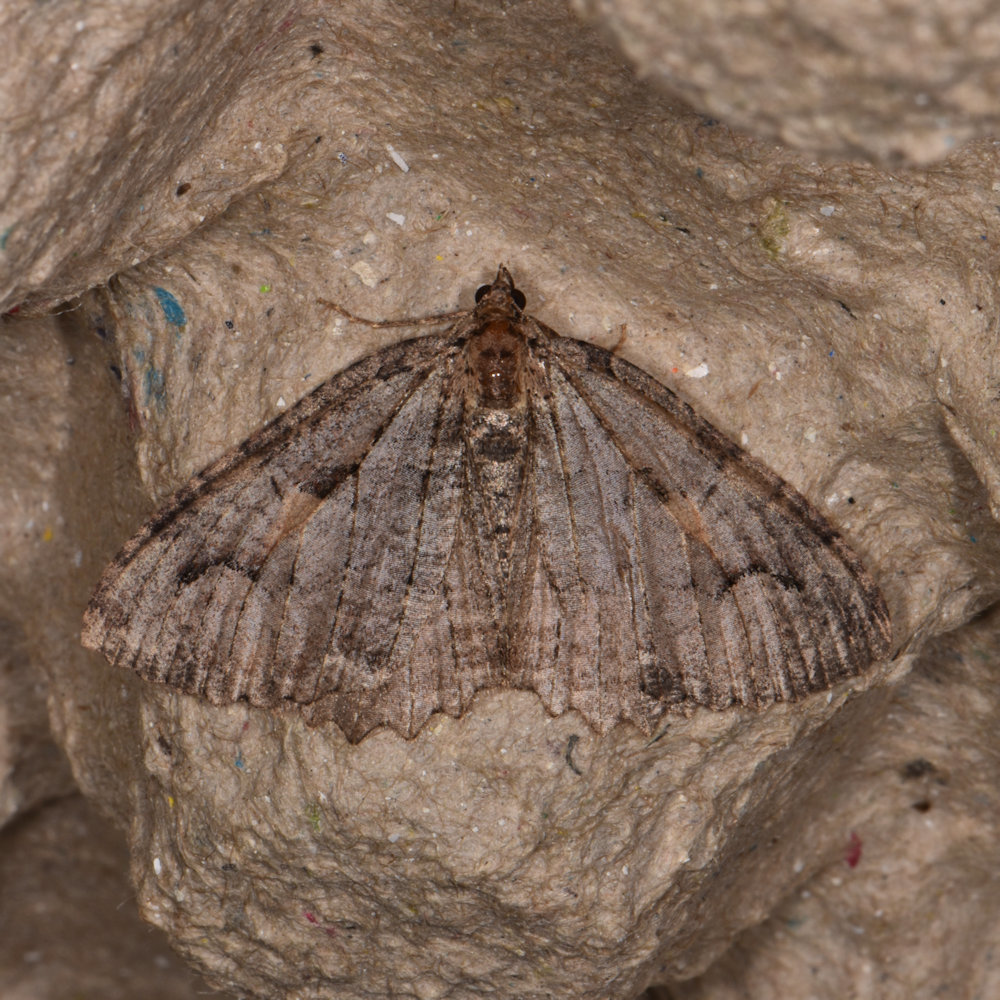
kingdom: Animalia
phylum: Arthropoda
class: Insecta
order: Lepidoptera
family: Geometridae
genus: Triphosa
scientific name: Triphosa haesitata
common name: Tissue moth
